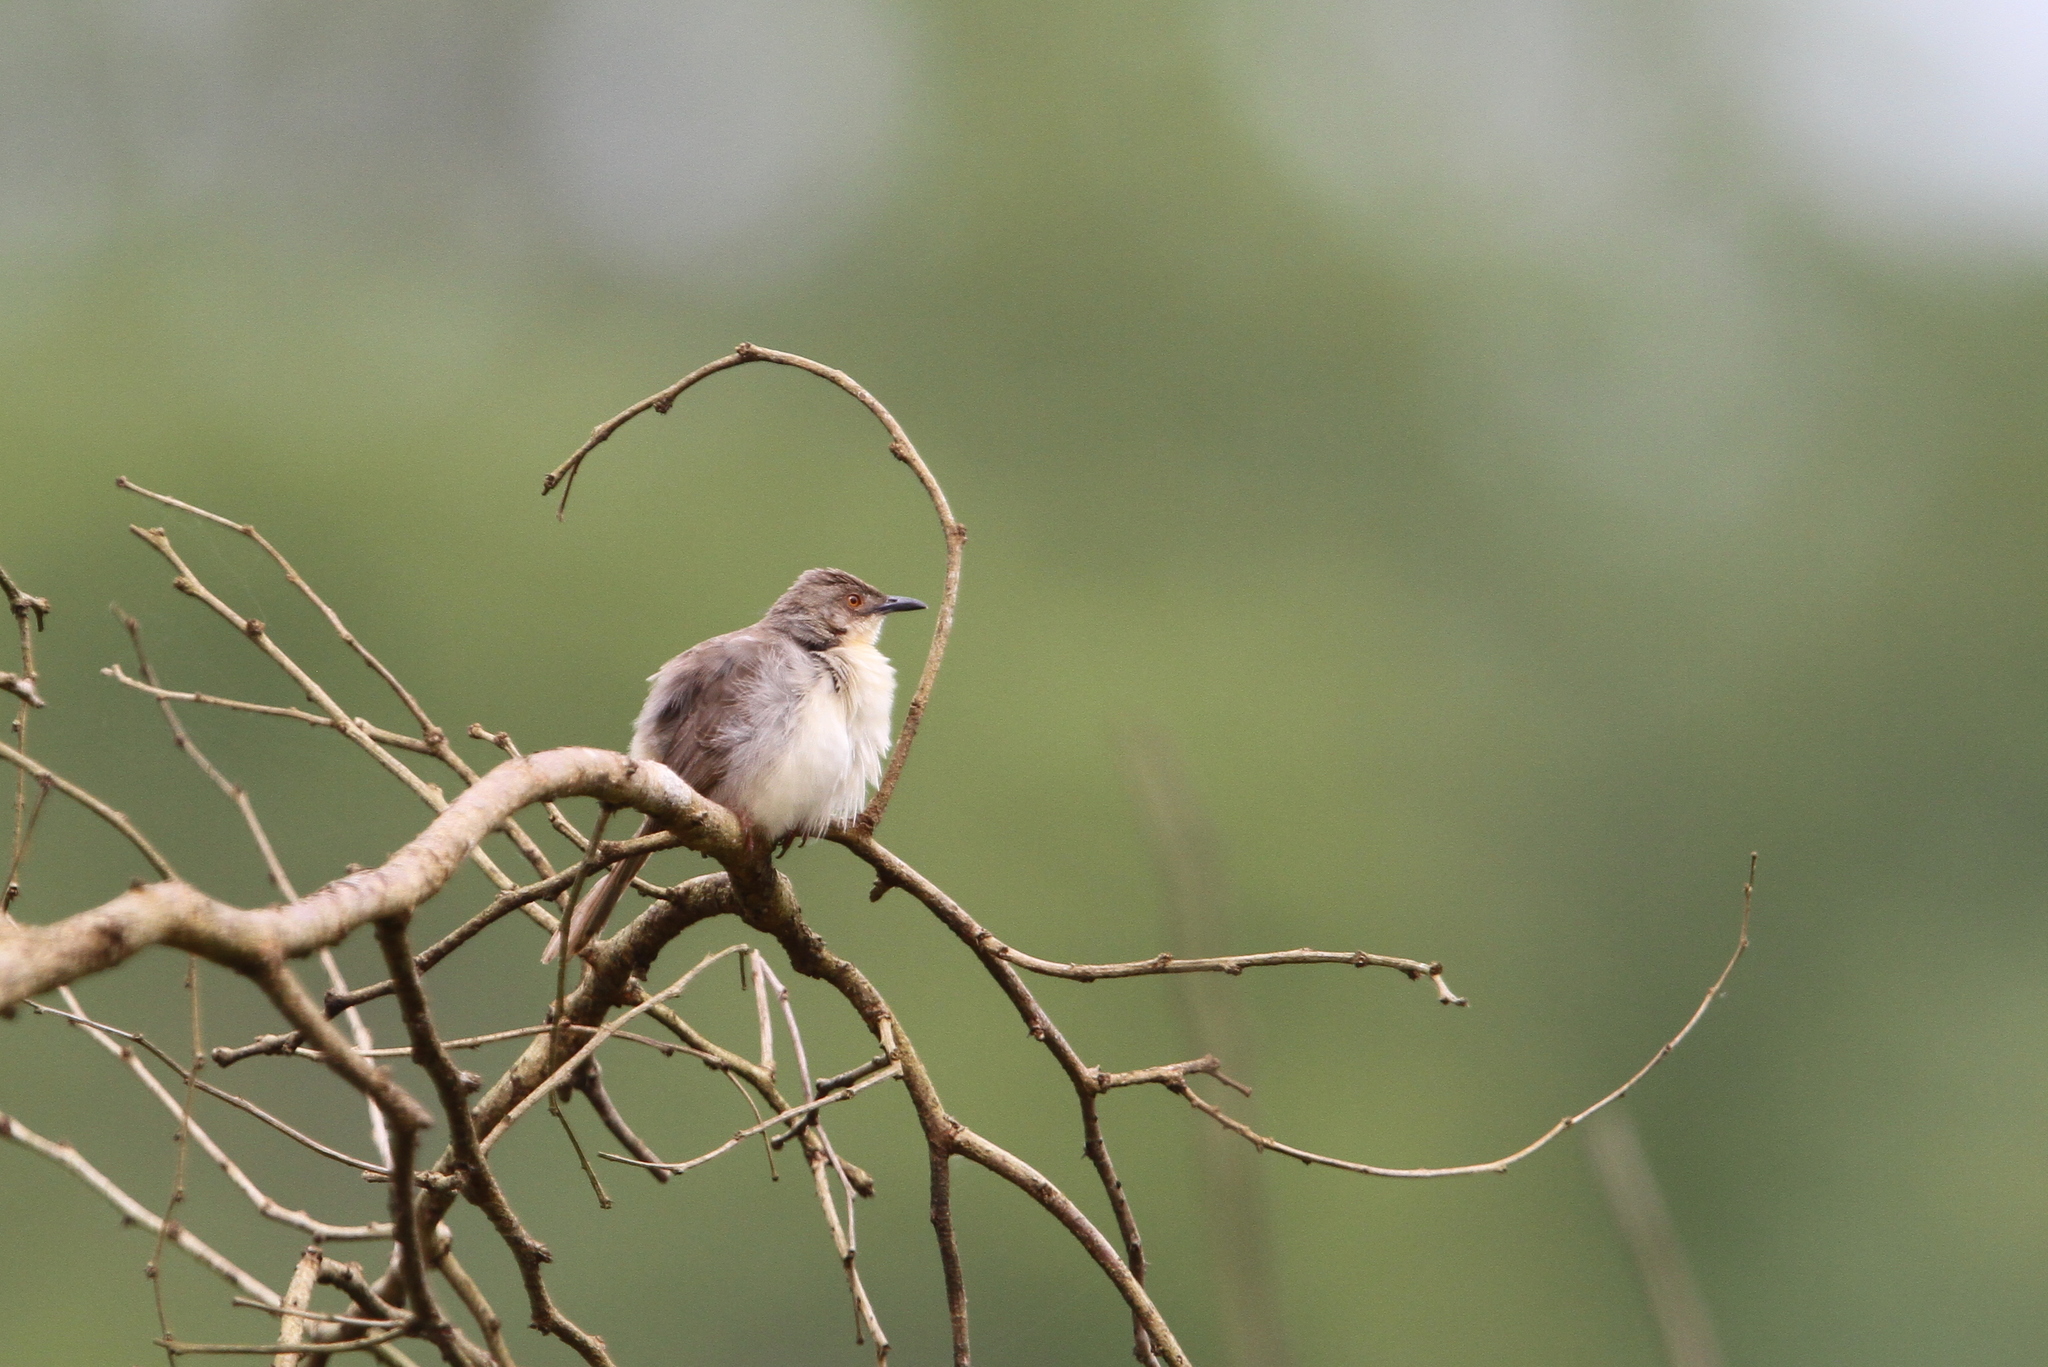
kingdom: Animalia
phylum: Chordata
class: Aves
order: Passeriformes
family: Cisticolidae
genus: Prinia
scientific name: Prinia sylvatica
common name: Jungle prinia
